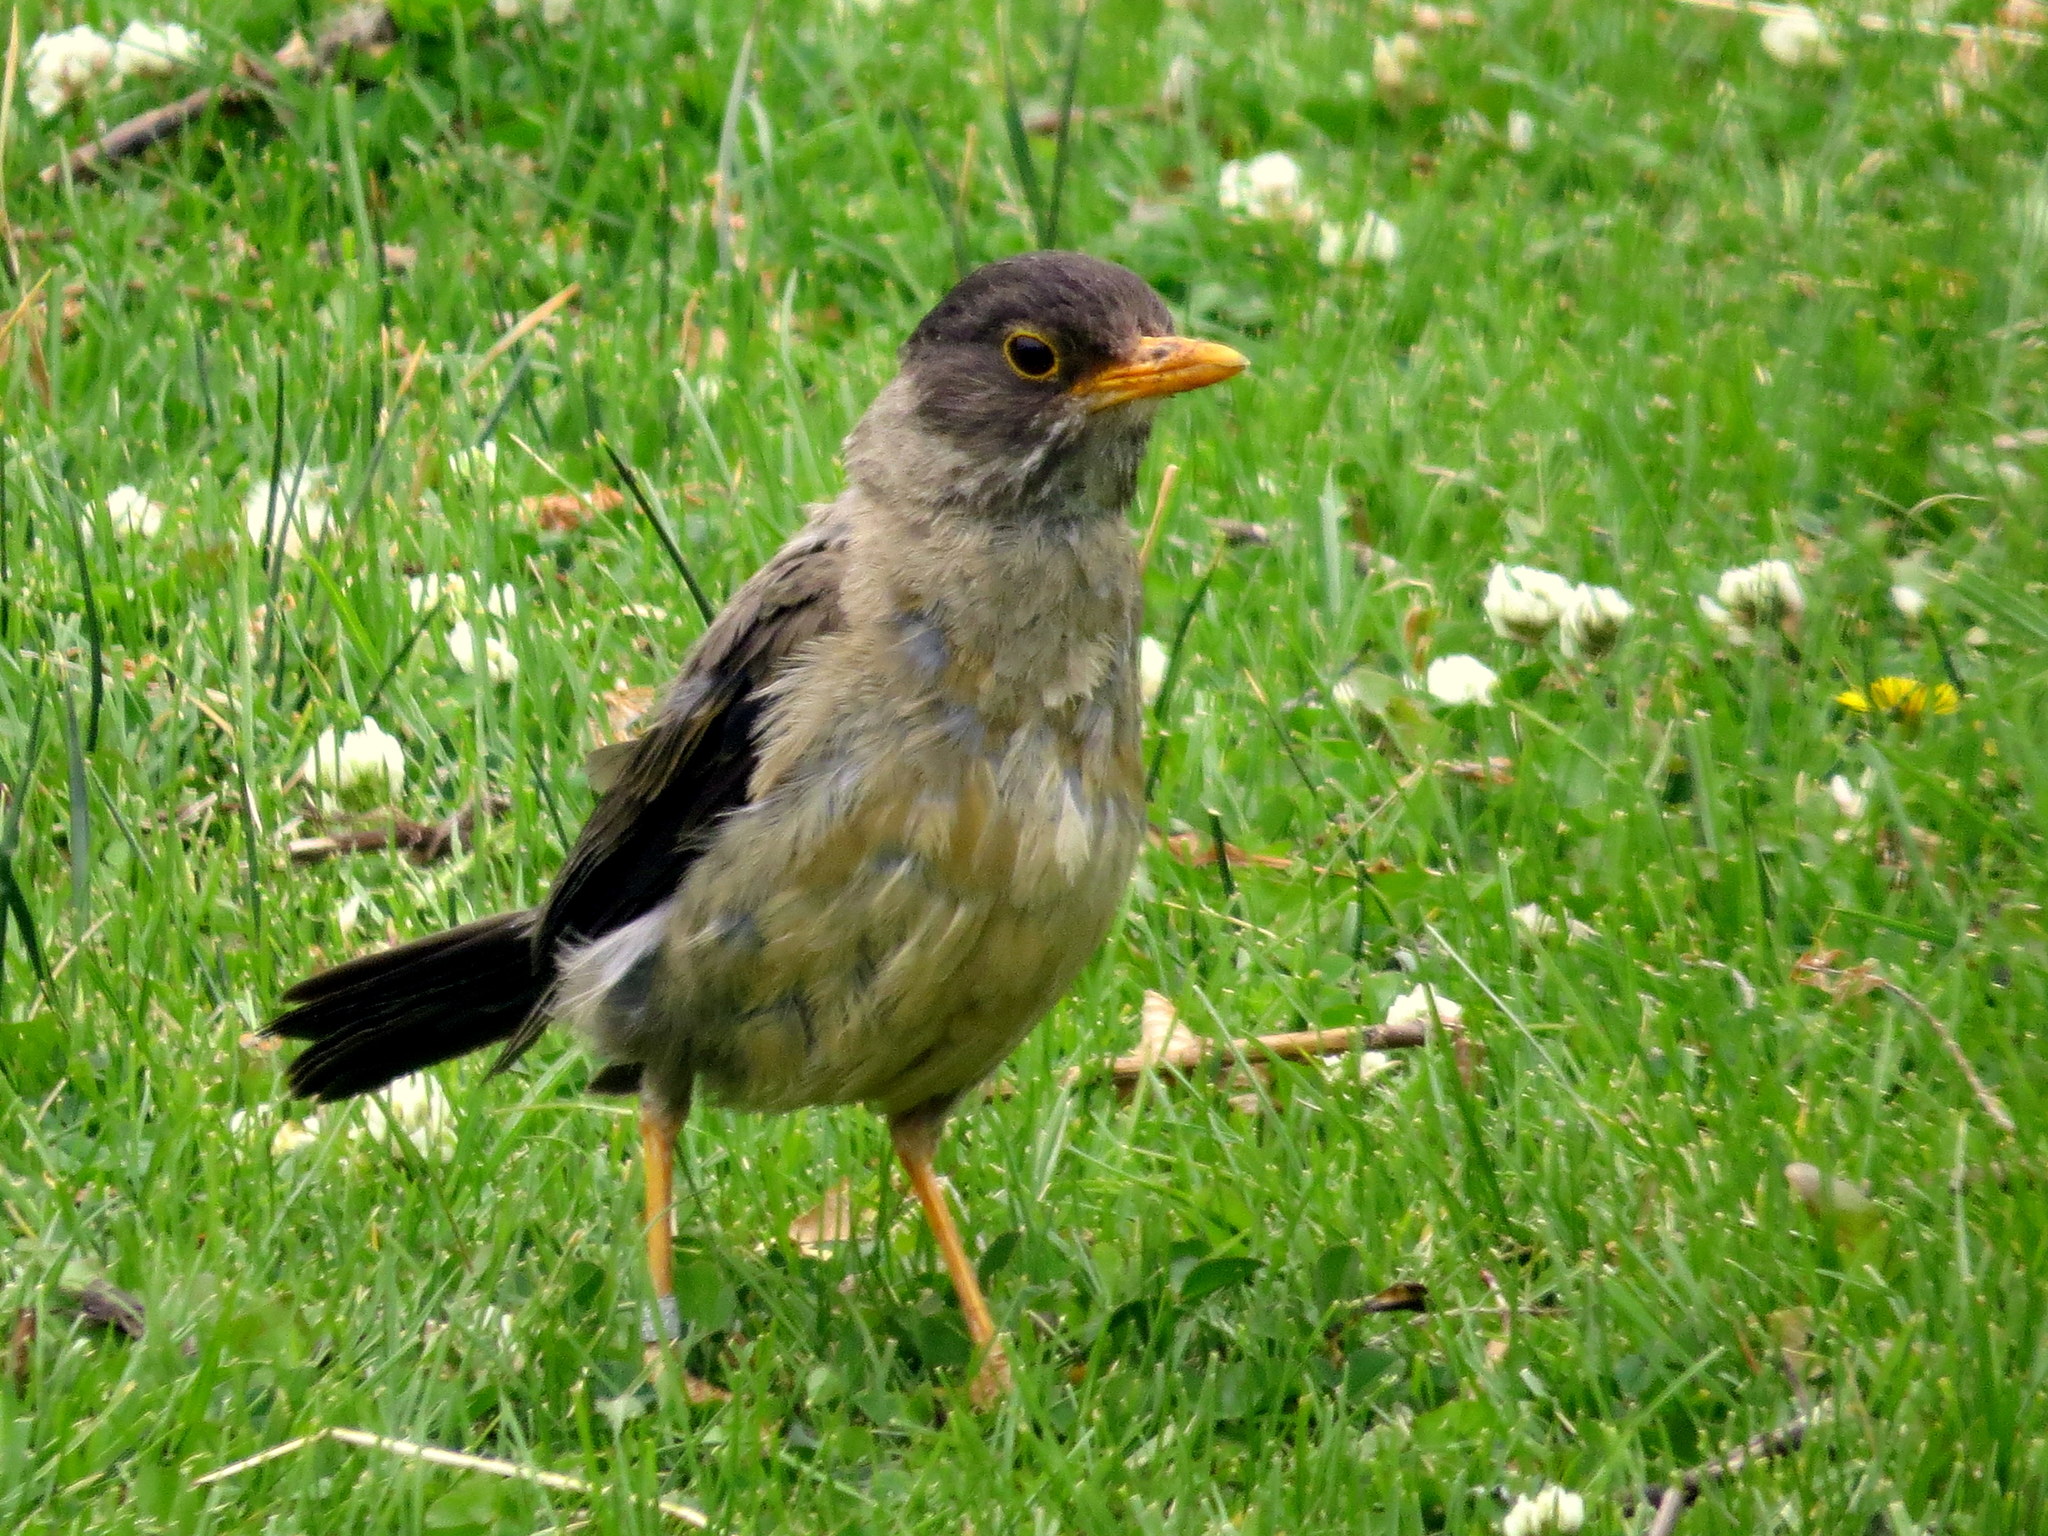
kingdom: Animalia
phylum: Chordata
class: Aves
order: Passeriformes
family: Turdidae
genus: Turdus
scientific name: Turdus falcklandii
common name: Austral thrush
